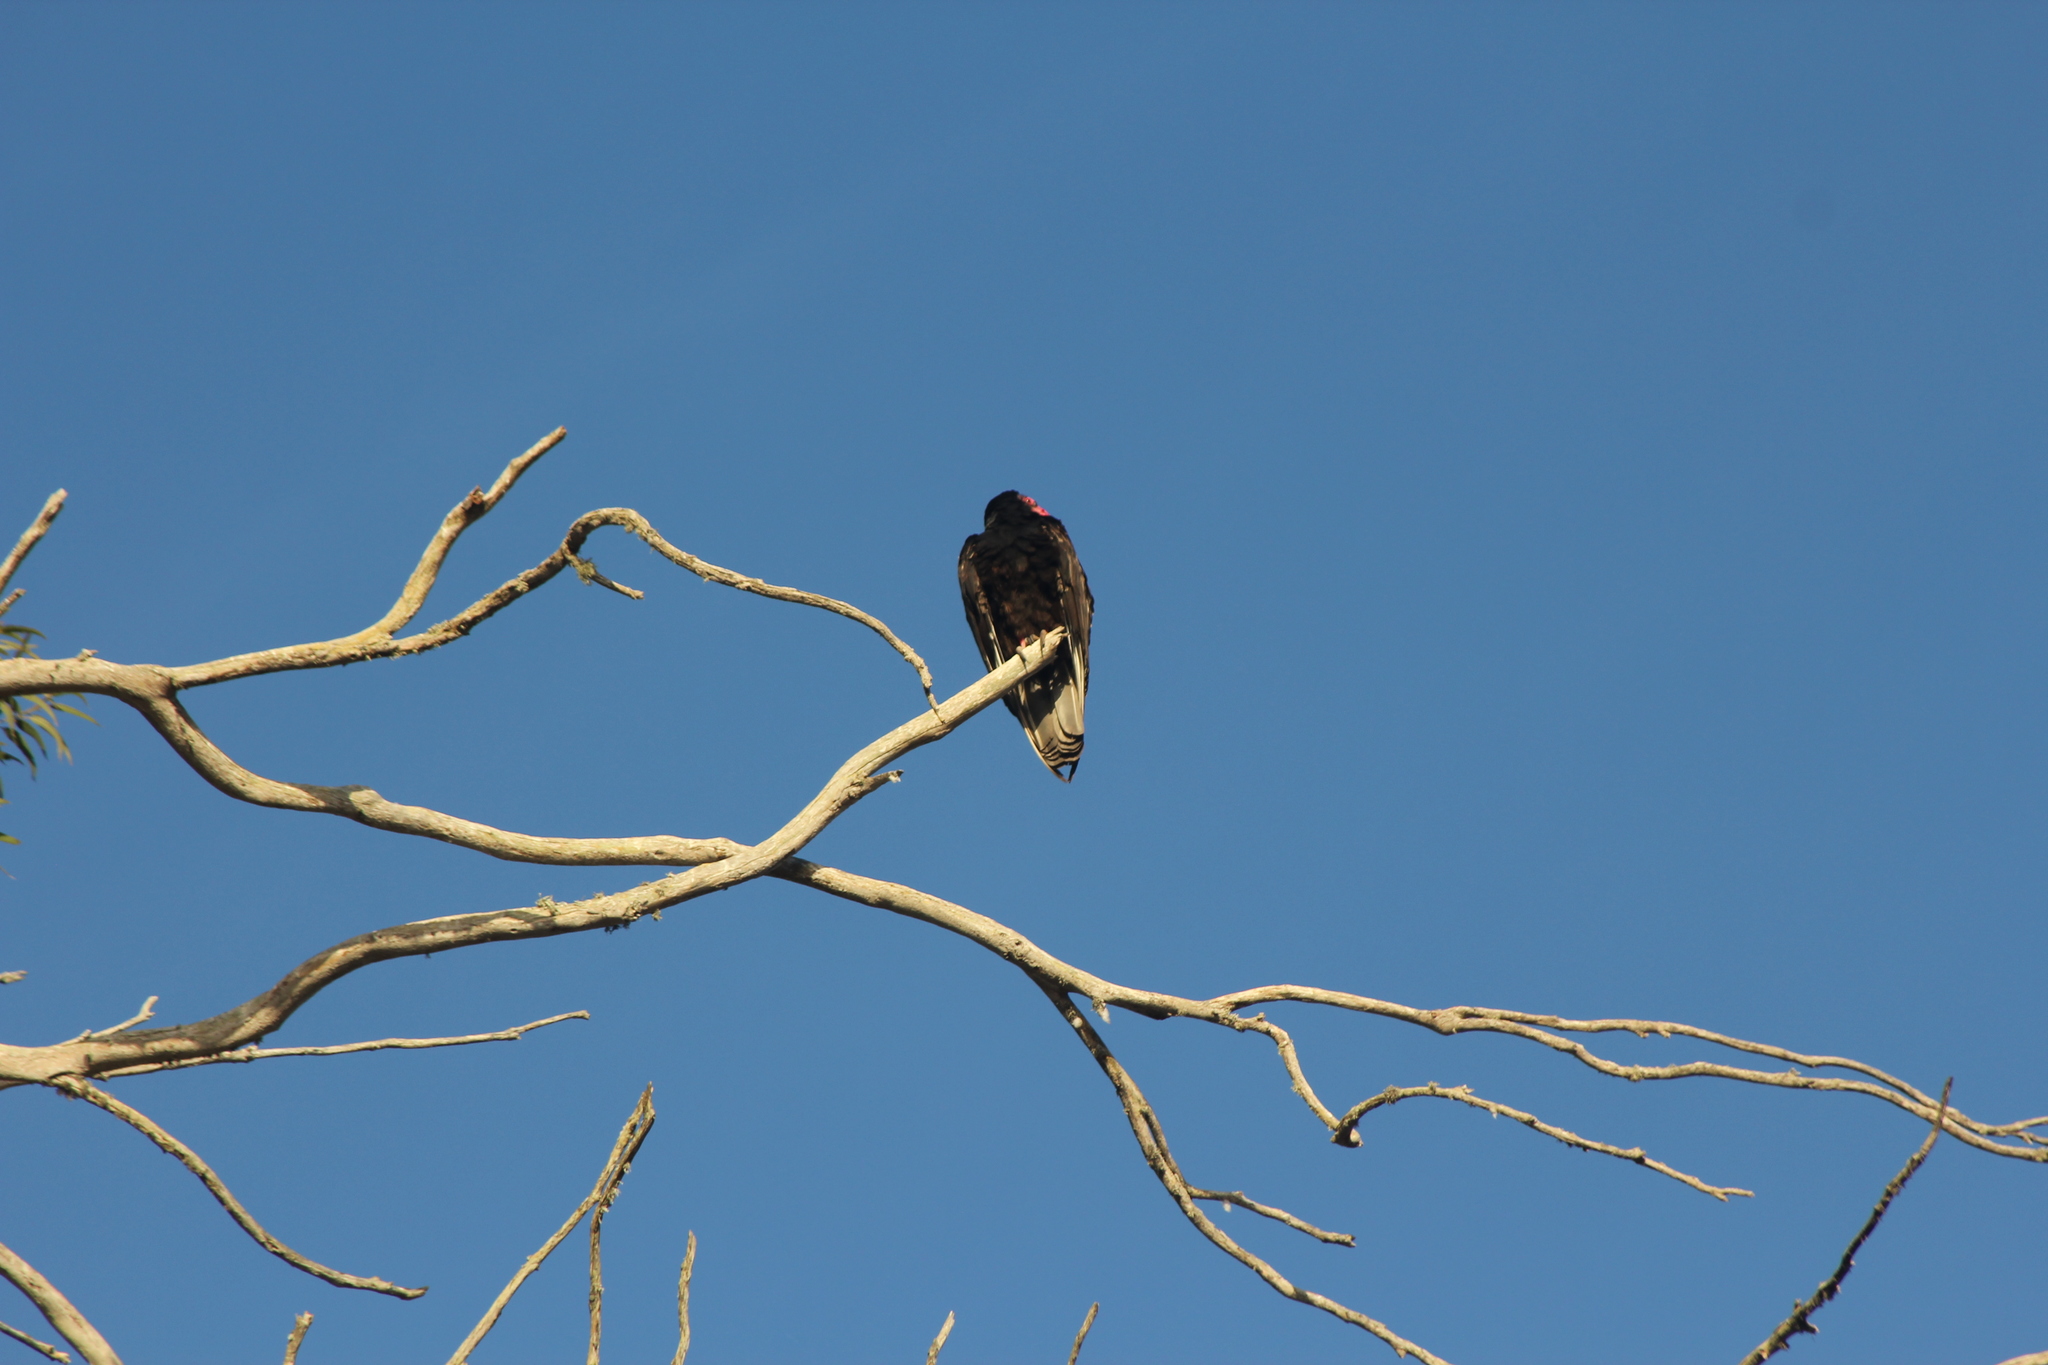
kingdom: Animalia
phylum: Chordata
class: Aves
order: Accipitriformes
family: Cathartidae
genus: Cathartes
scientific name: Cathartes aura
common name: Turkey vulture
